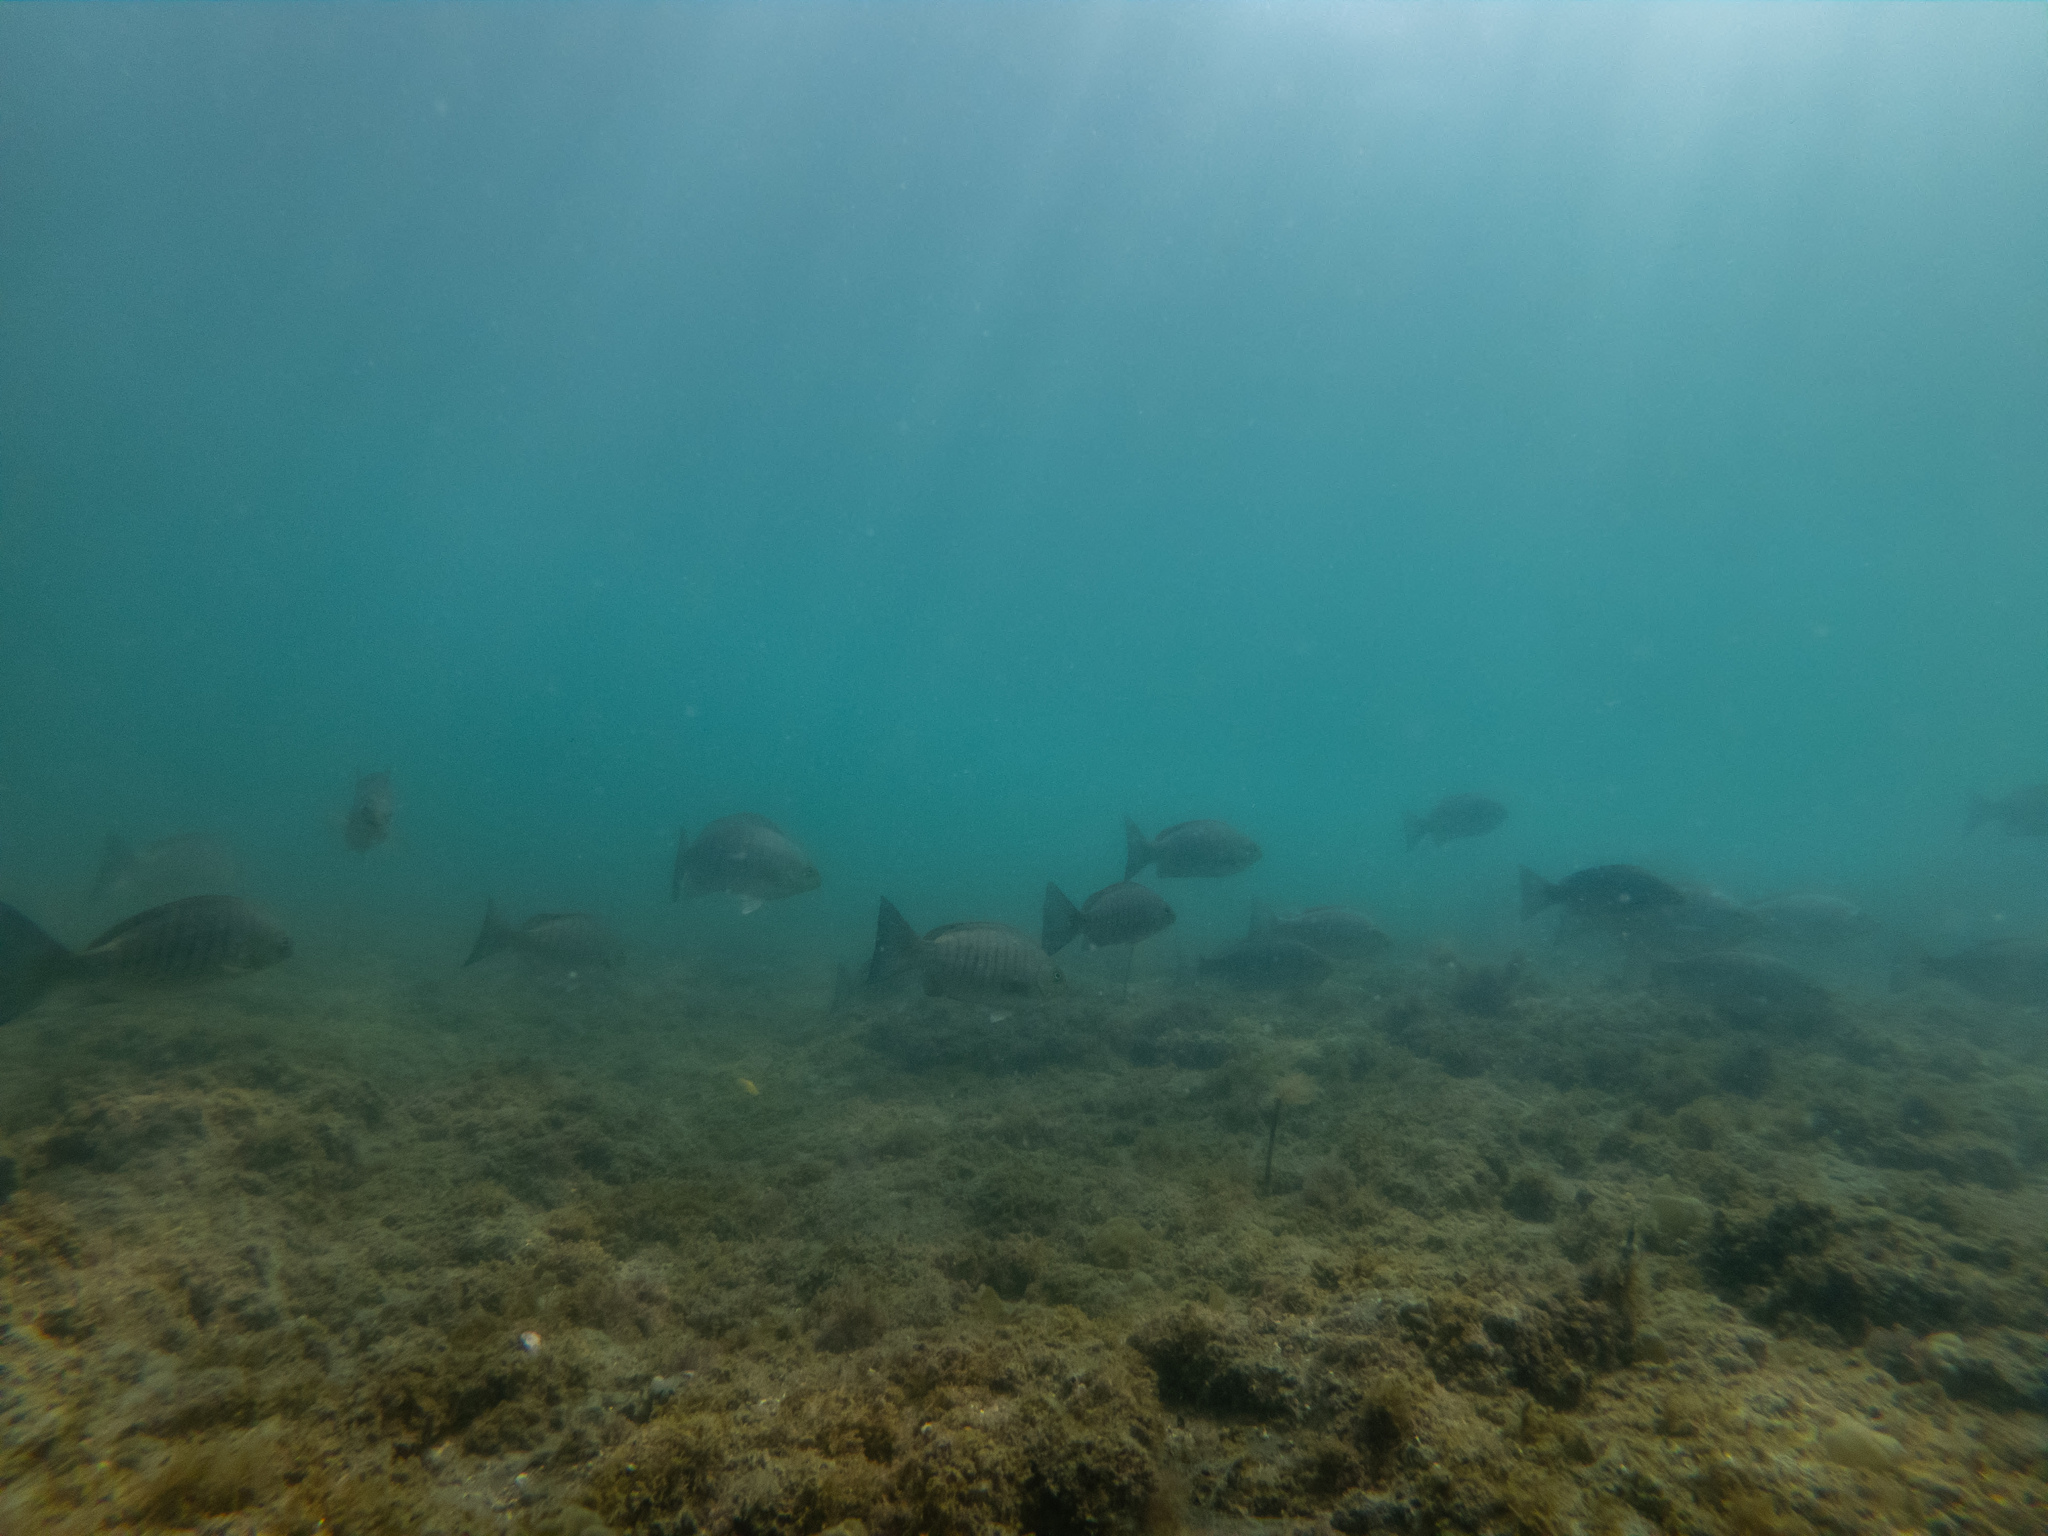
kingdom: Animalia
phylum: Chordata
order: Perciformes
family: Kyphosidae
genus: Girella
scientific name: Girella tricuspidata
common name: Parore
